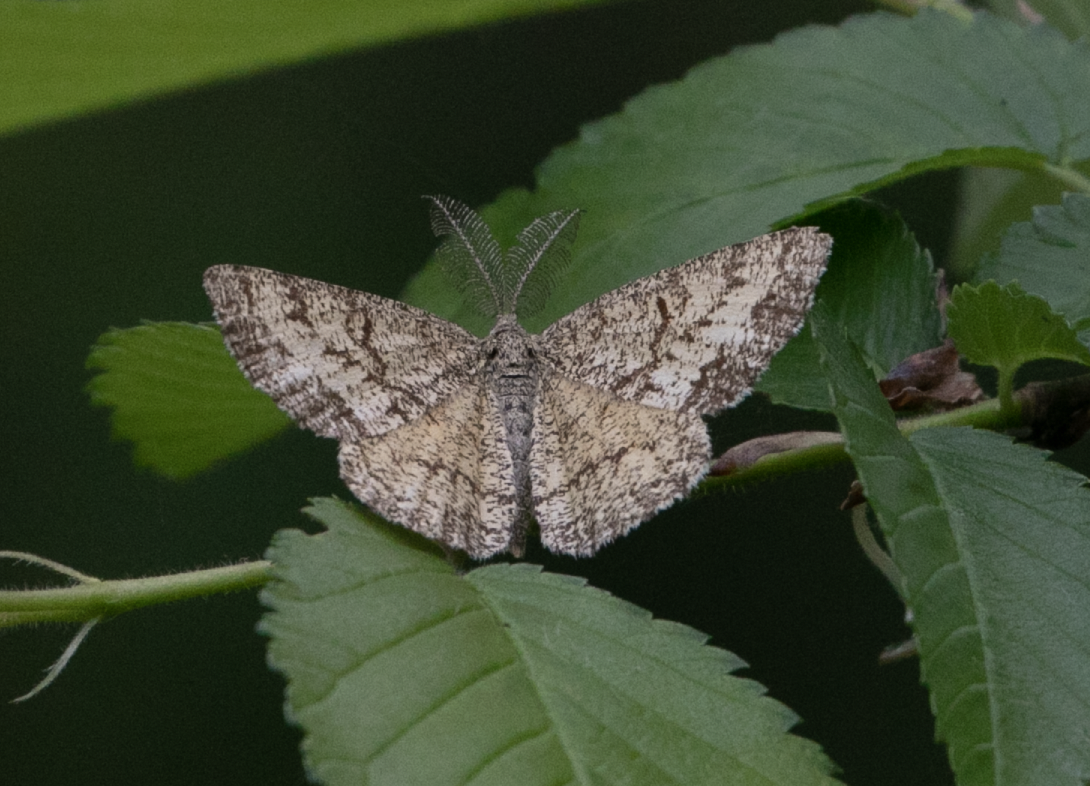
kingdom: Animalia
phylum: Arthropoda
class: Insecta
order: Lepidoptera
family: Geometridae
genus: Ematurga
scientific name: Ematurga atomaria
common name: Common heath
